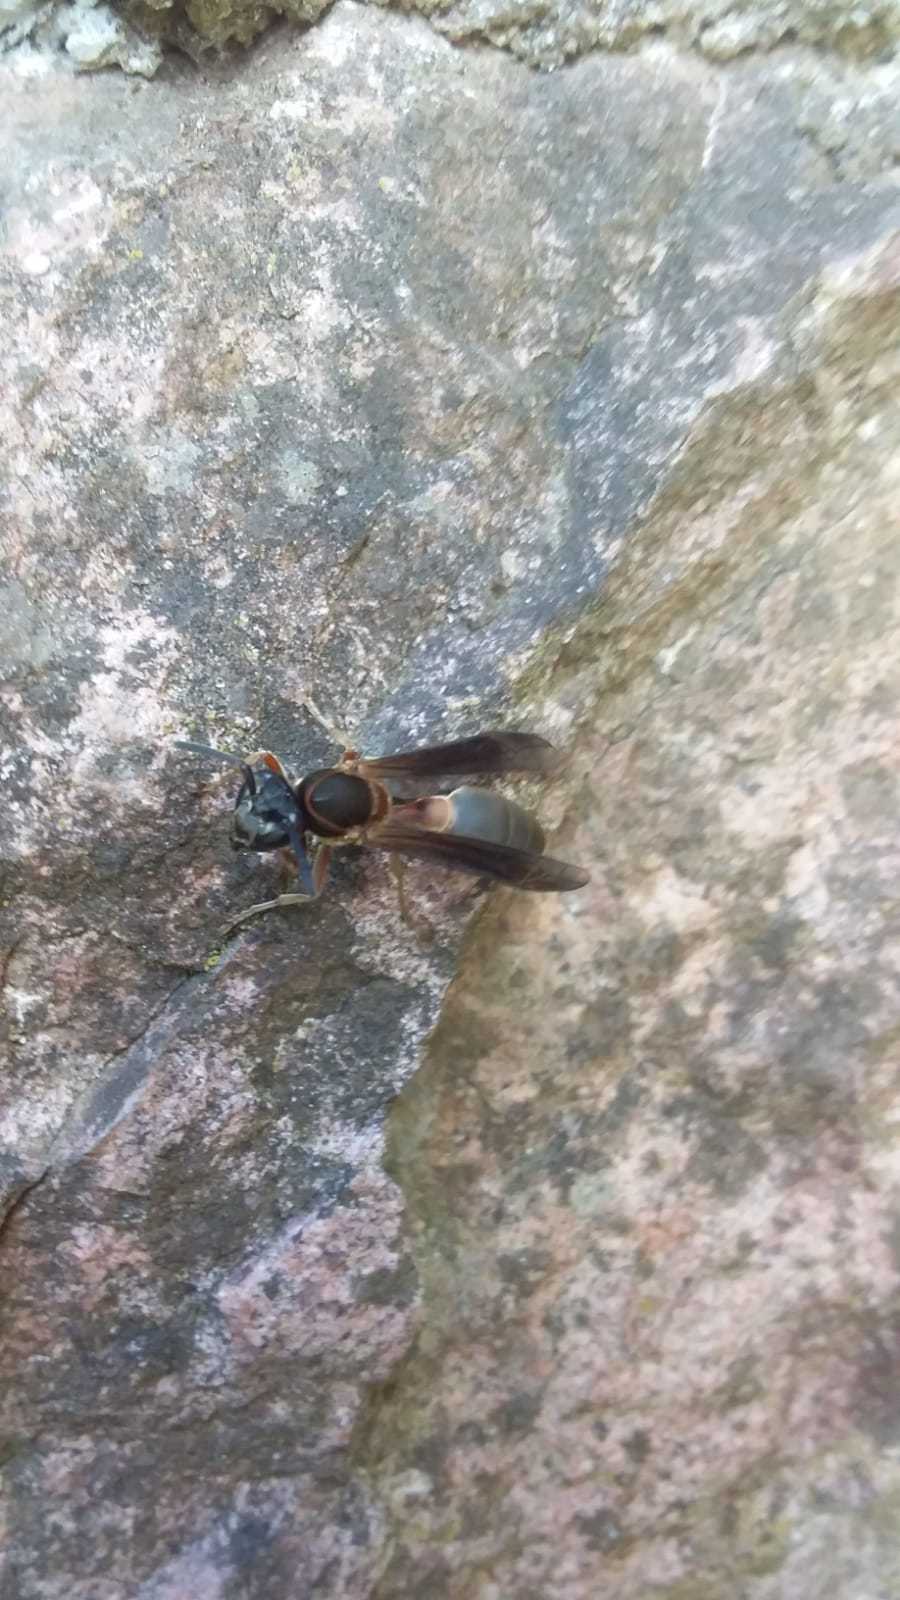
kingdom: Animalia
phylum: Arthropoda
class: Insecta
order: Hymenoptera
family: Eumenidae
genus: Polybia
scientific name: Polybia sericea
